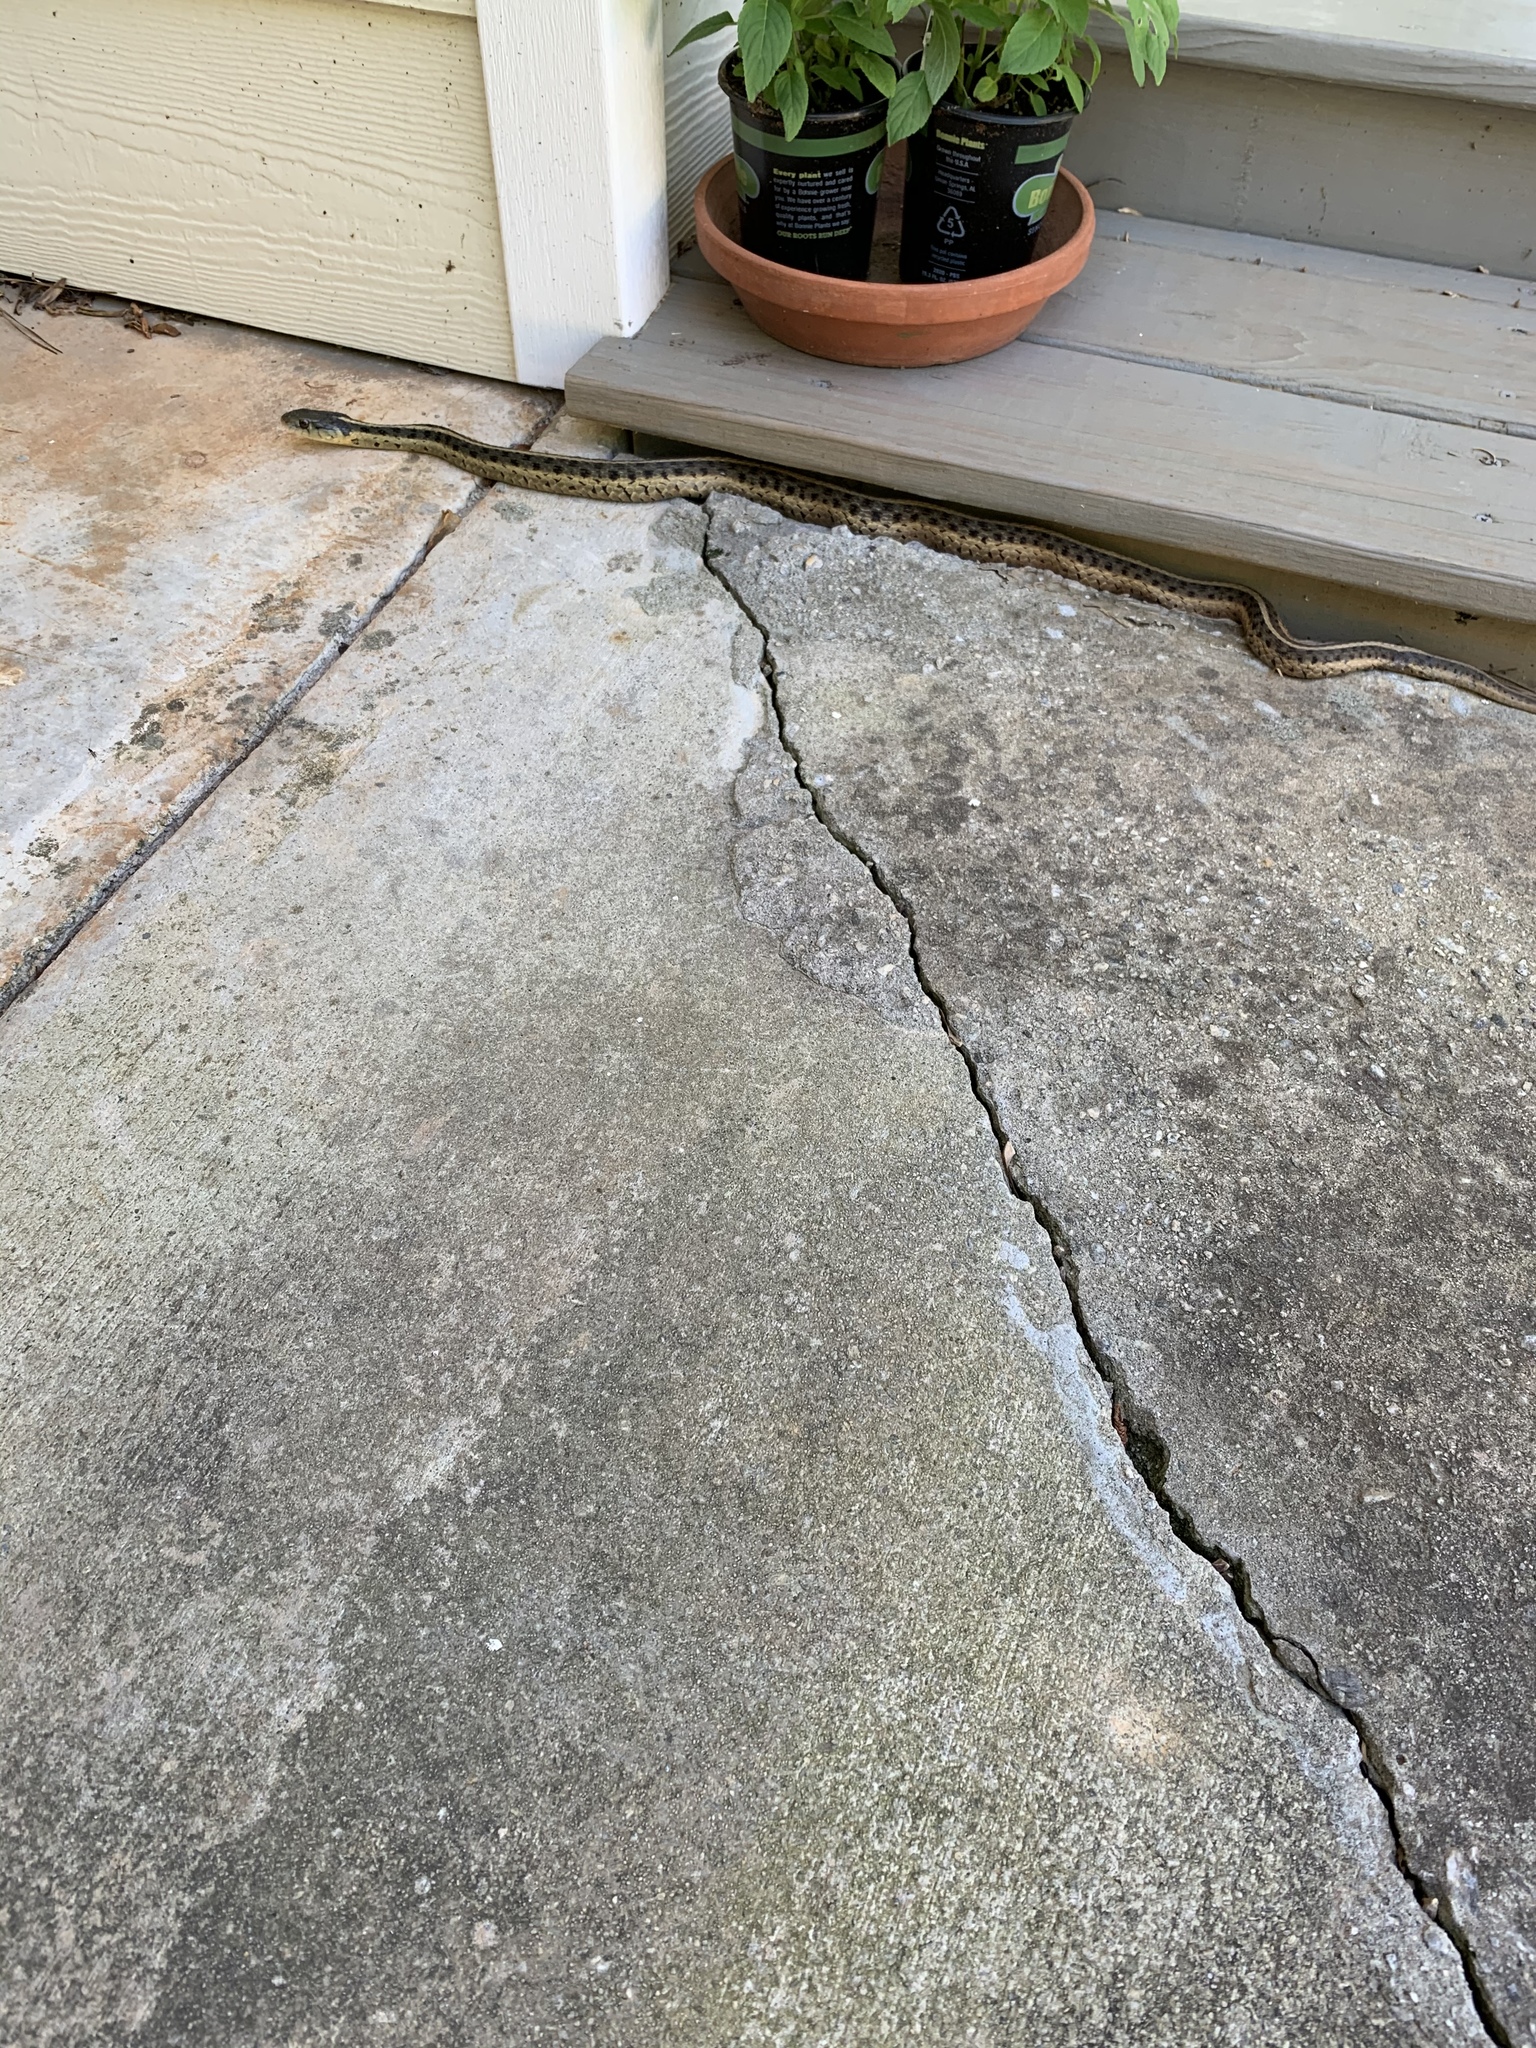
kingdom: Animalia
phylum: Chordata
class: Squamata
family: Colubridae
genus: Thamnophis
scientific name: Thamnophis sirtalis
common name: Common garter snake
